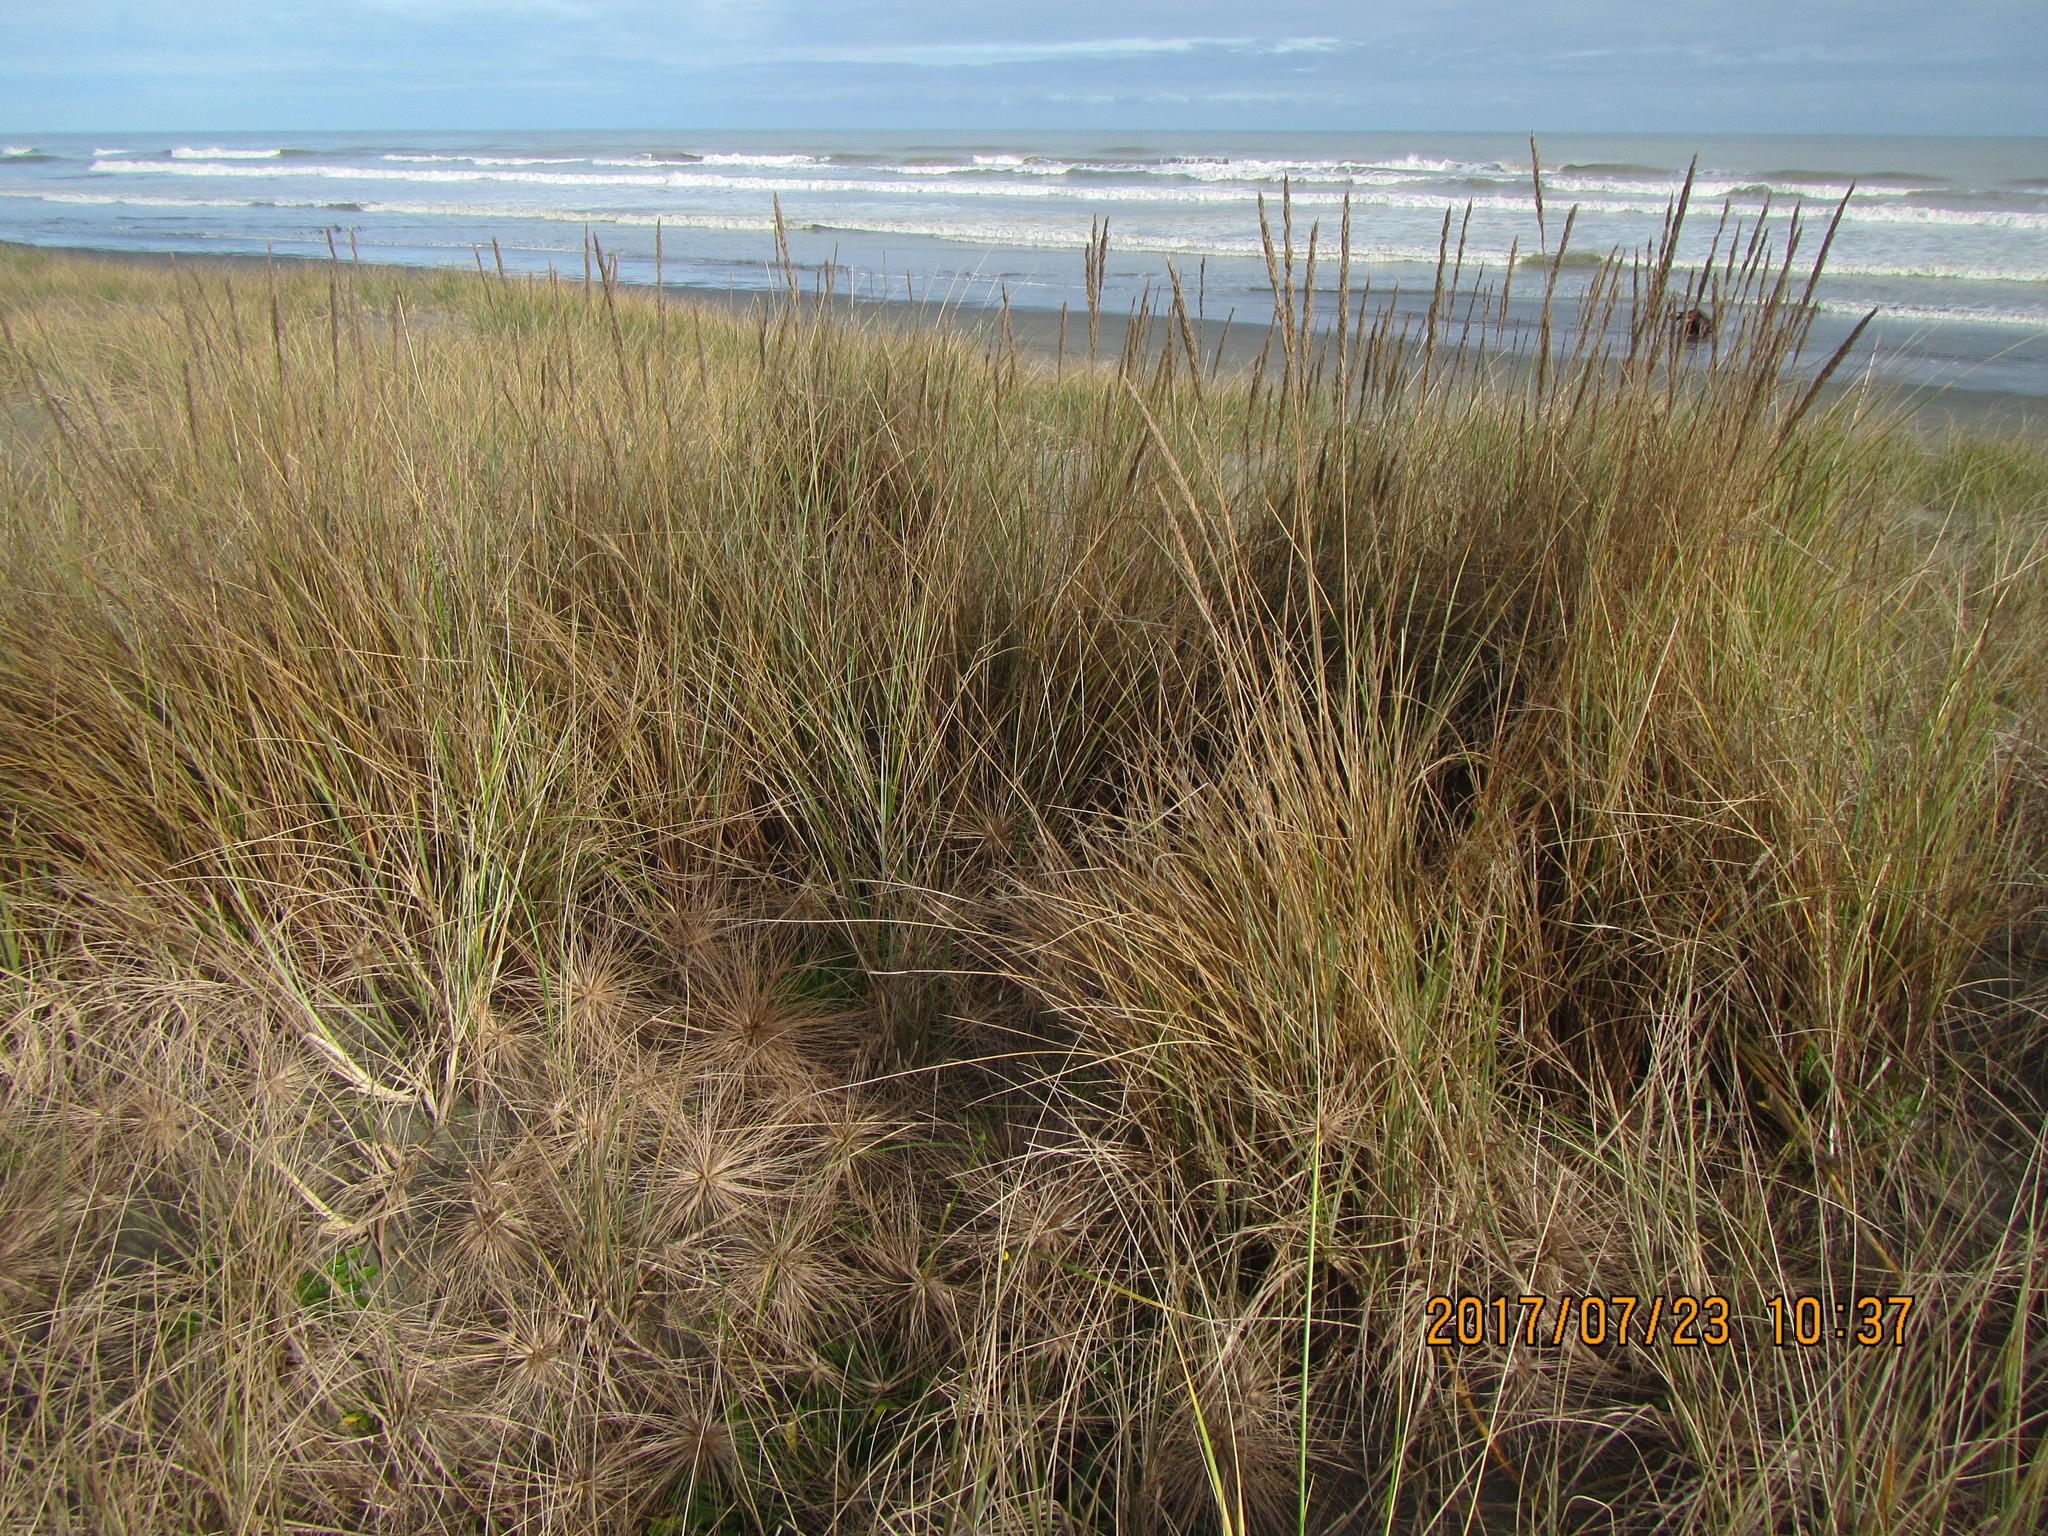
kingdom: Plantae
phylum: Tracheophyta
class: Liliopsida
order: Poales
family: Poaceae
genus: Calamagrostis
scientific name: Calamagrostis arenaria
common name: European beachgrass
